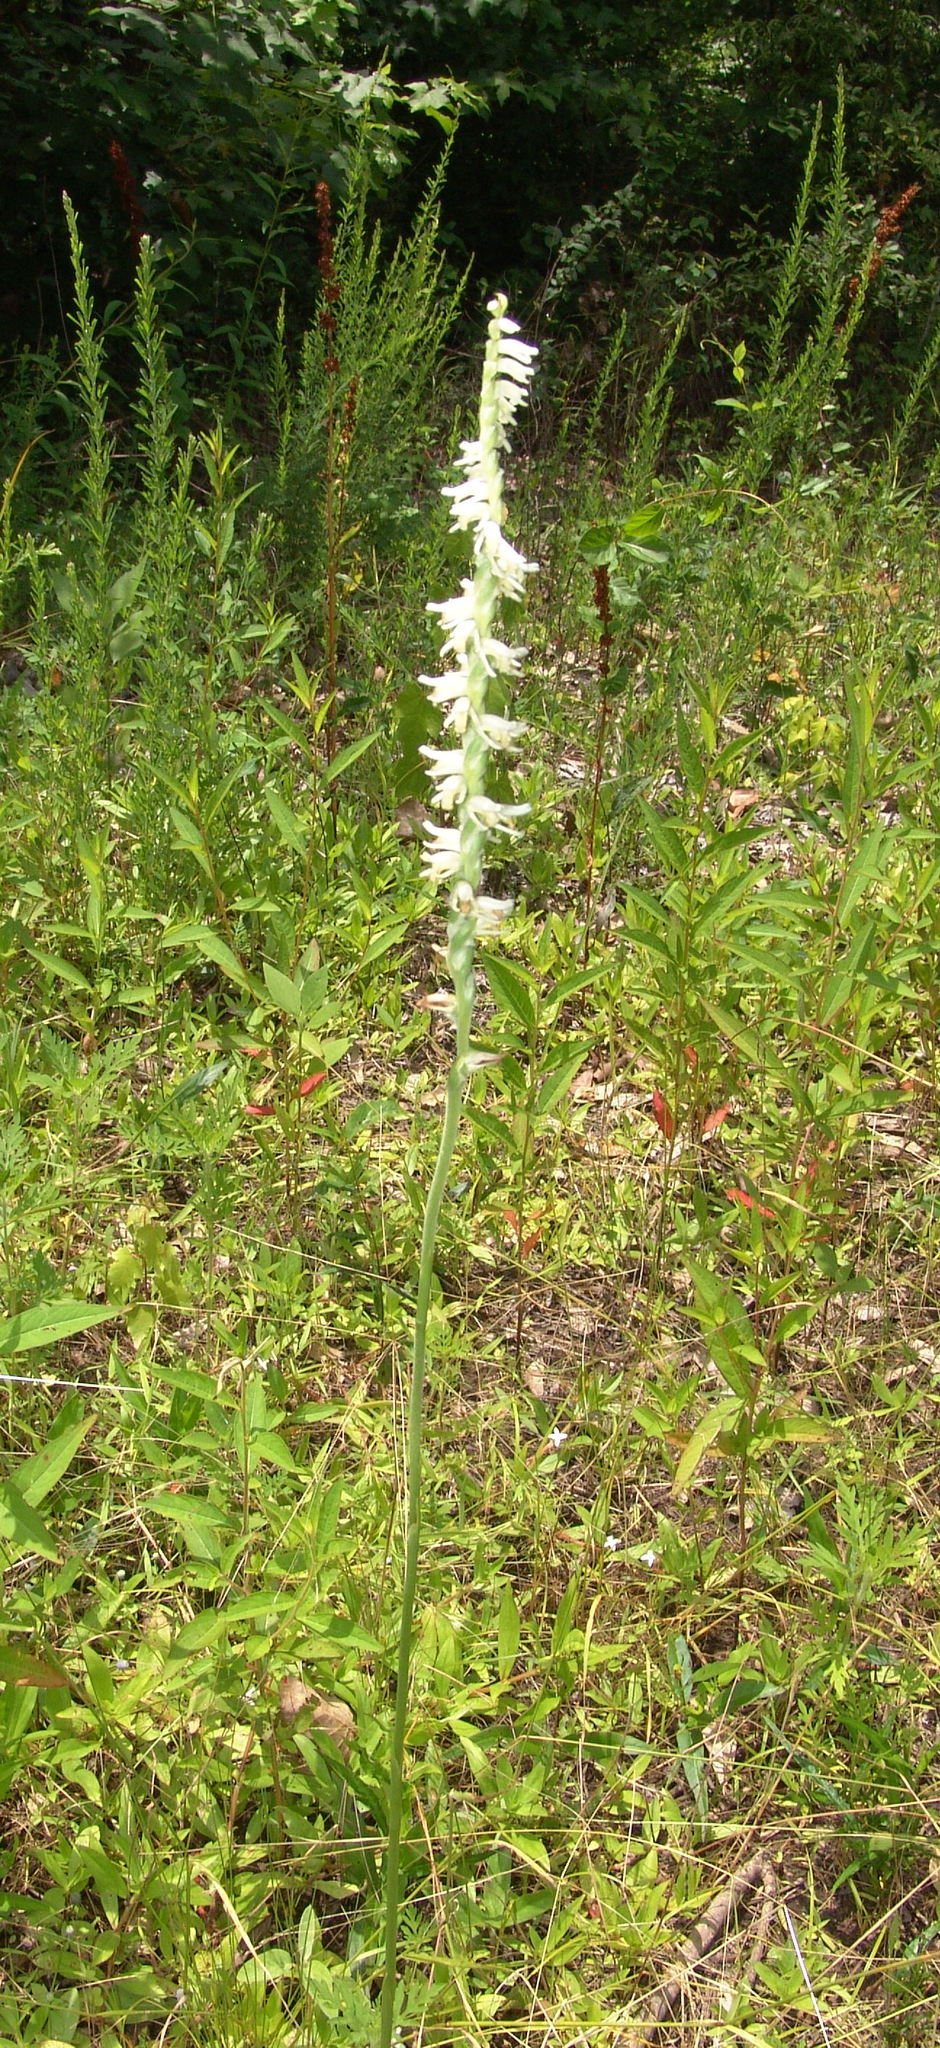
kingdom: Plantae
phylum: Tracheophyta
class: Liliopsida
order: Asparagales
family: Orchidaceae
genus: Spiranthes
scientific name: Spiranthes vernalis
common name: Spring ladies'-tresses
